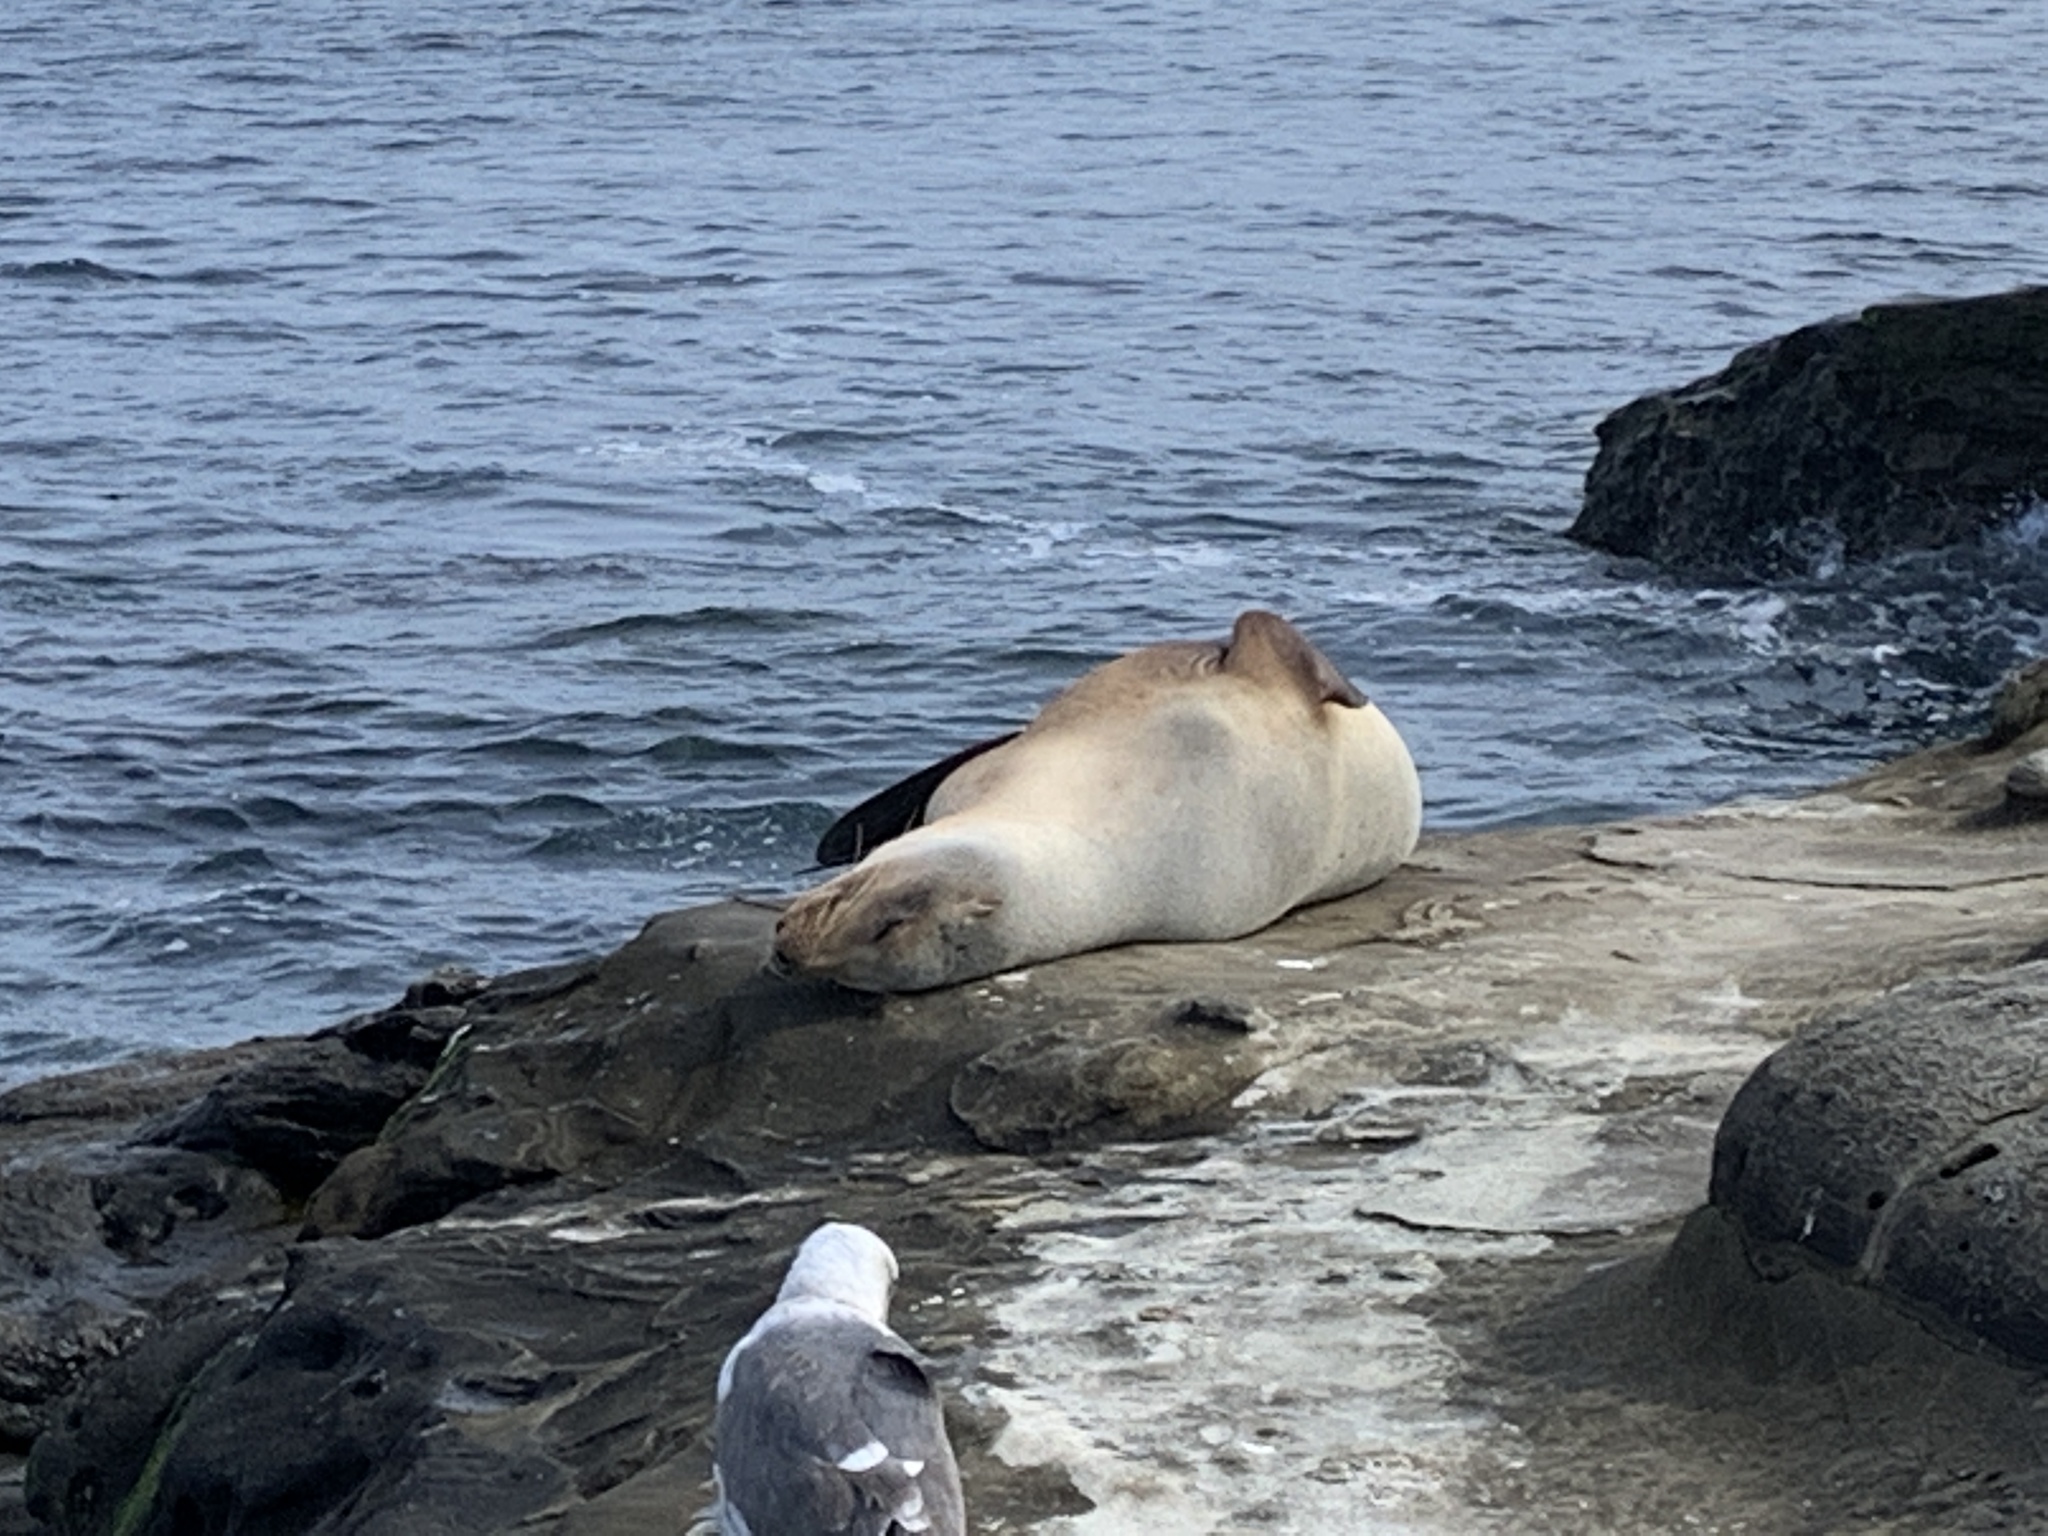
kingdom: Animalia
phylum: Chordata
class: Mammalia
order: Carnivora
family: Otariidae
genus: Zalophus
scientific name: Zalophus californianus
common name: California sea lion
